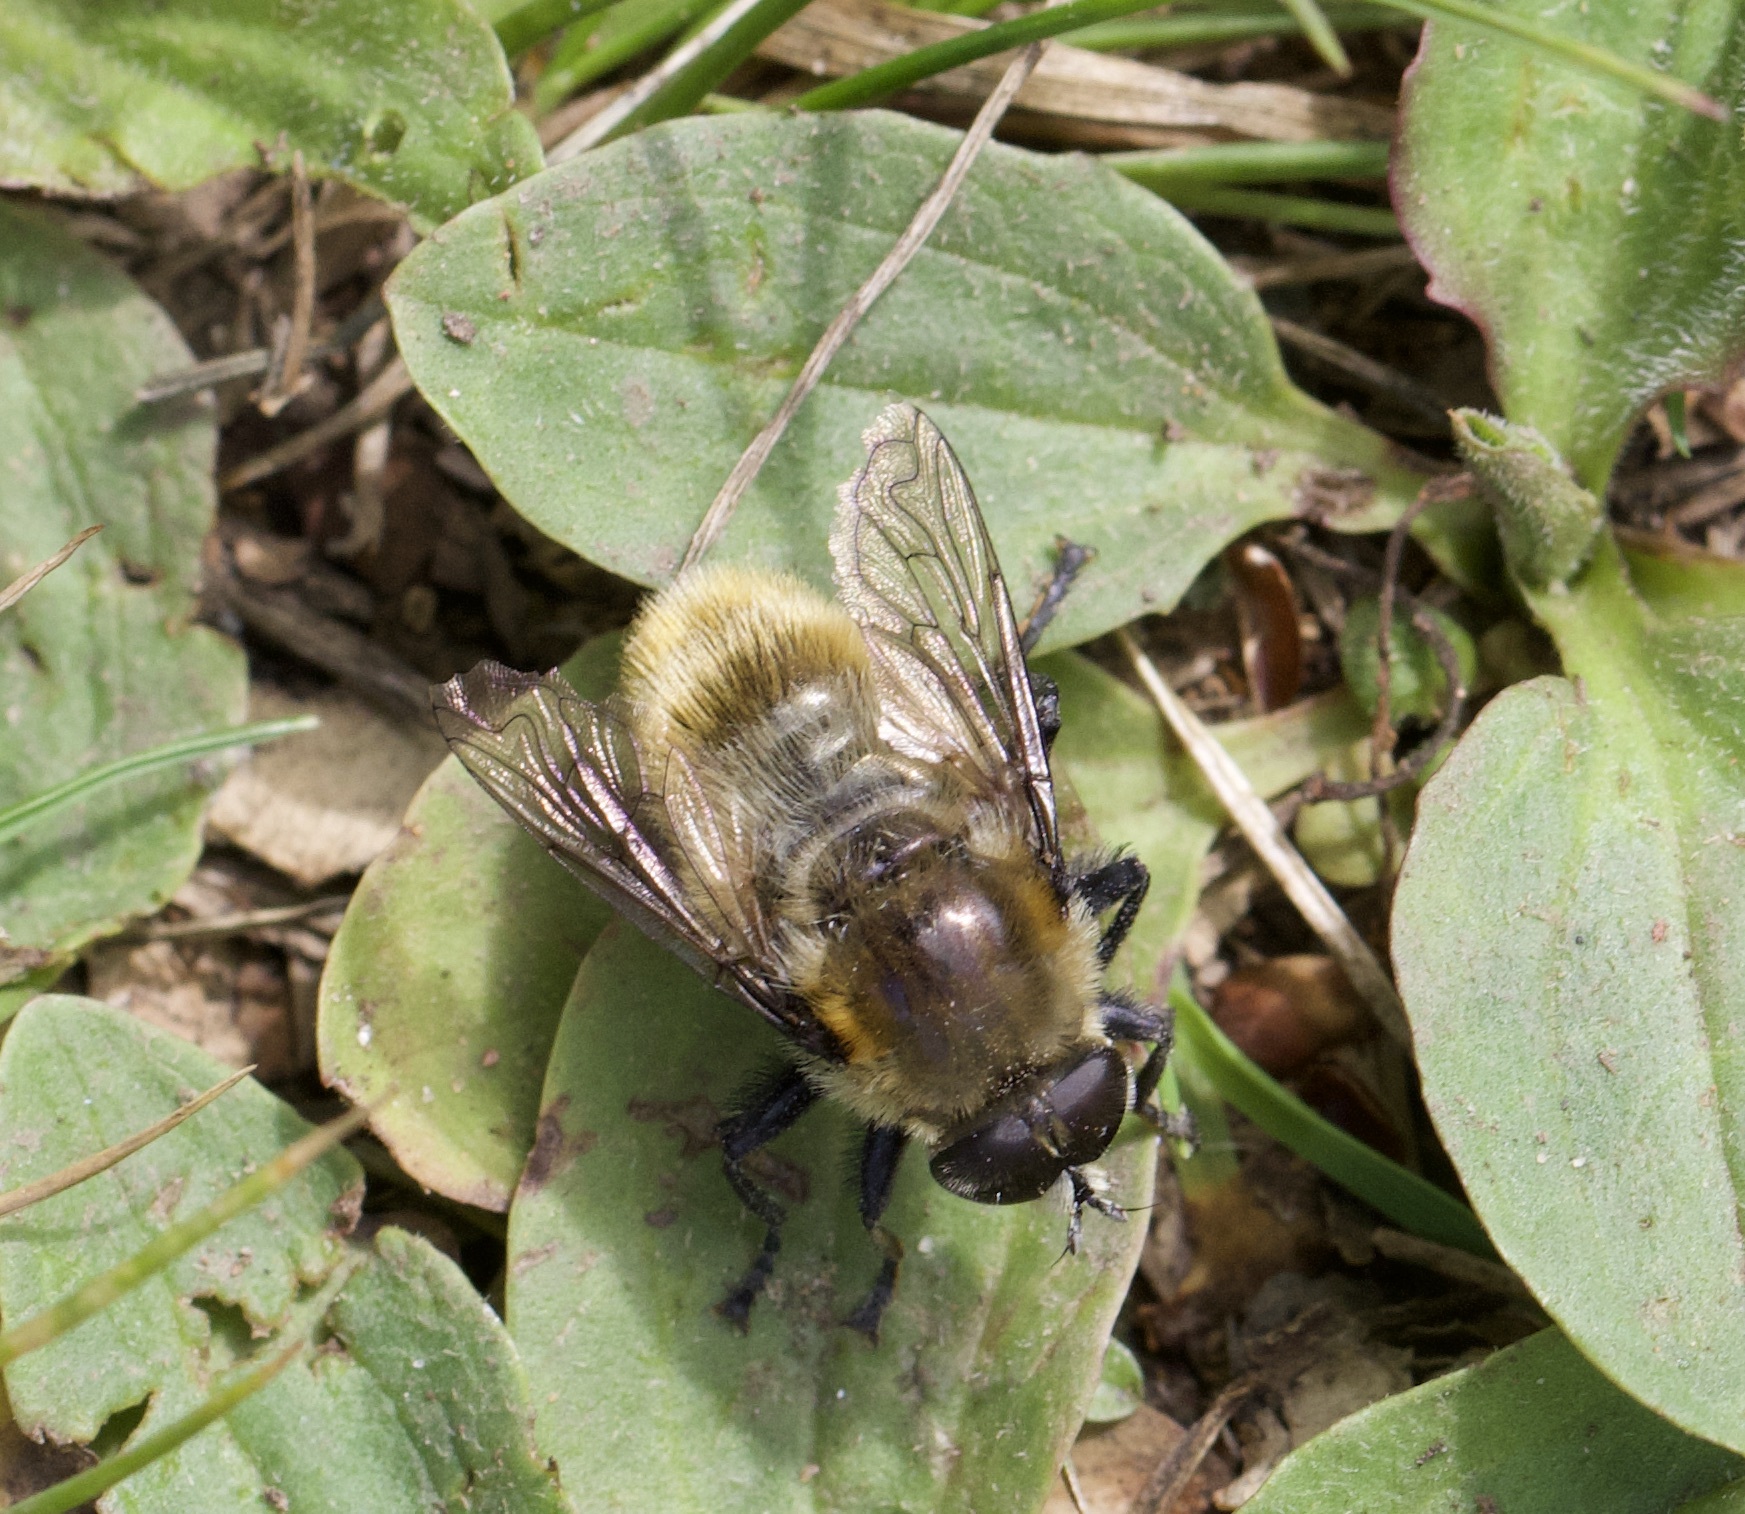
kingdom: Animalia
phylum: Arthropoda
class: Insecta
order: Diptera
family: Syrphidae
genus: Merodon
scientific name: Merodon equestris
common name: Greater bulb-fly
